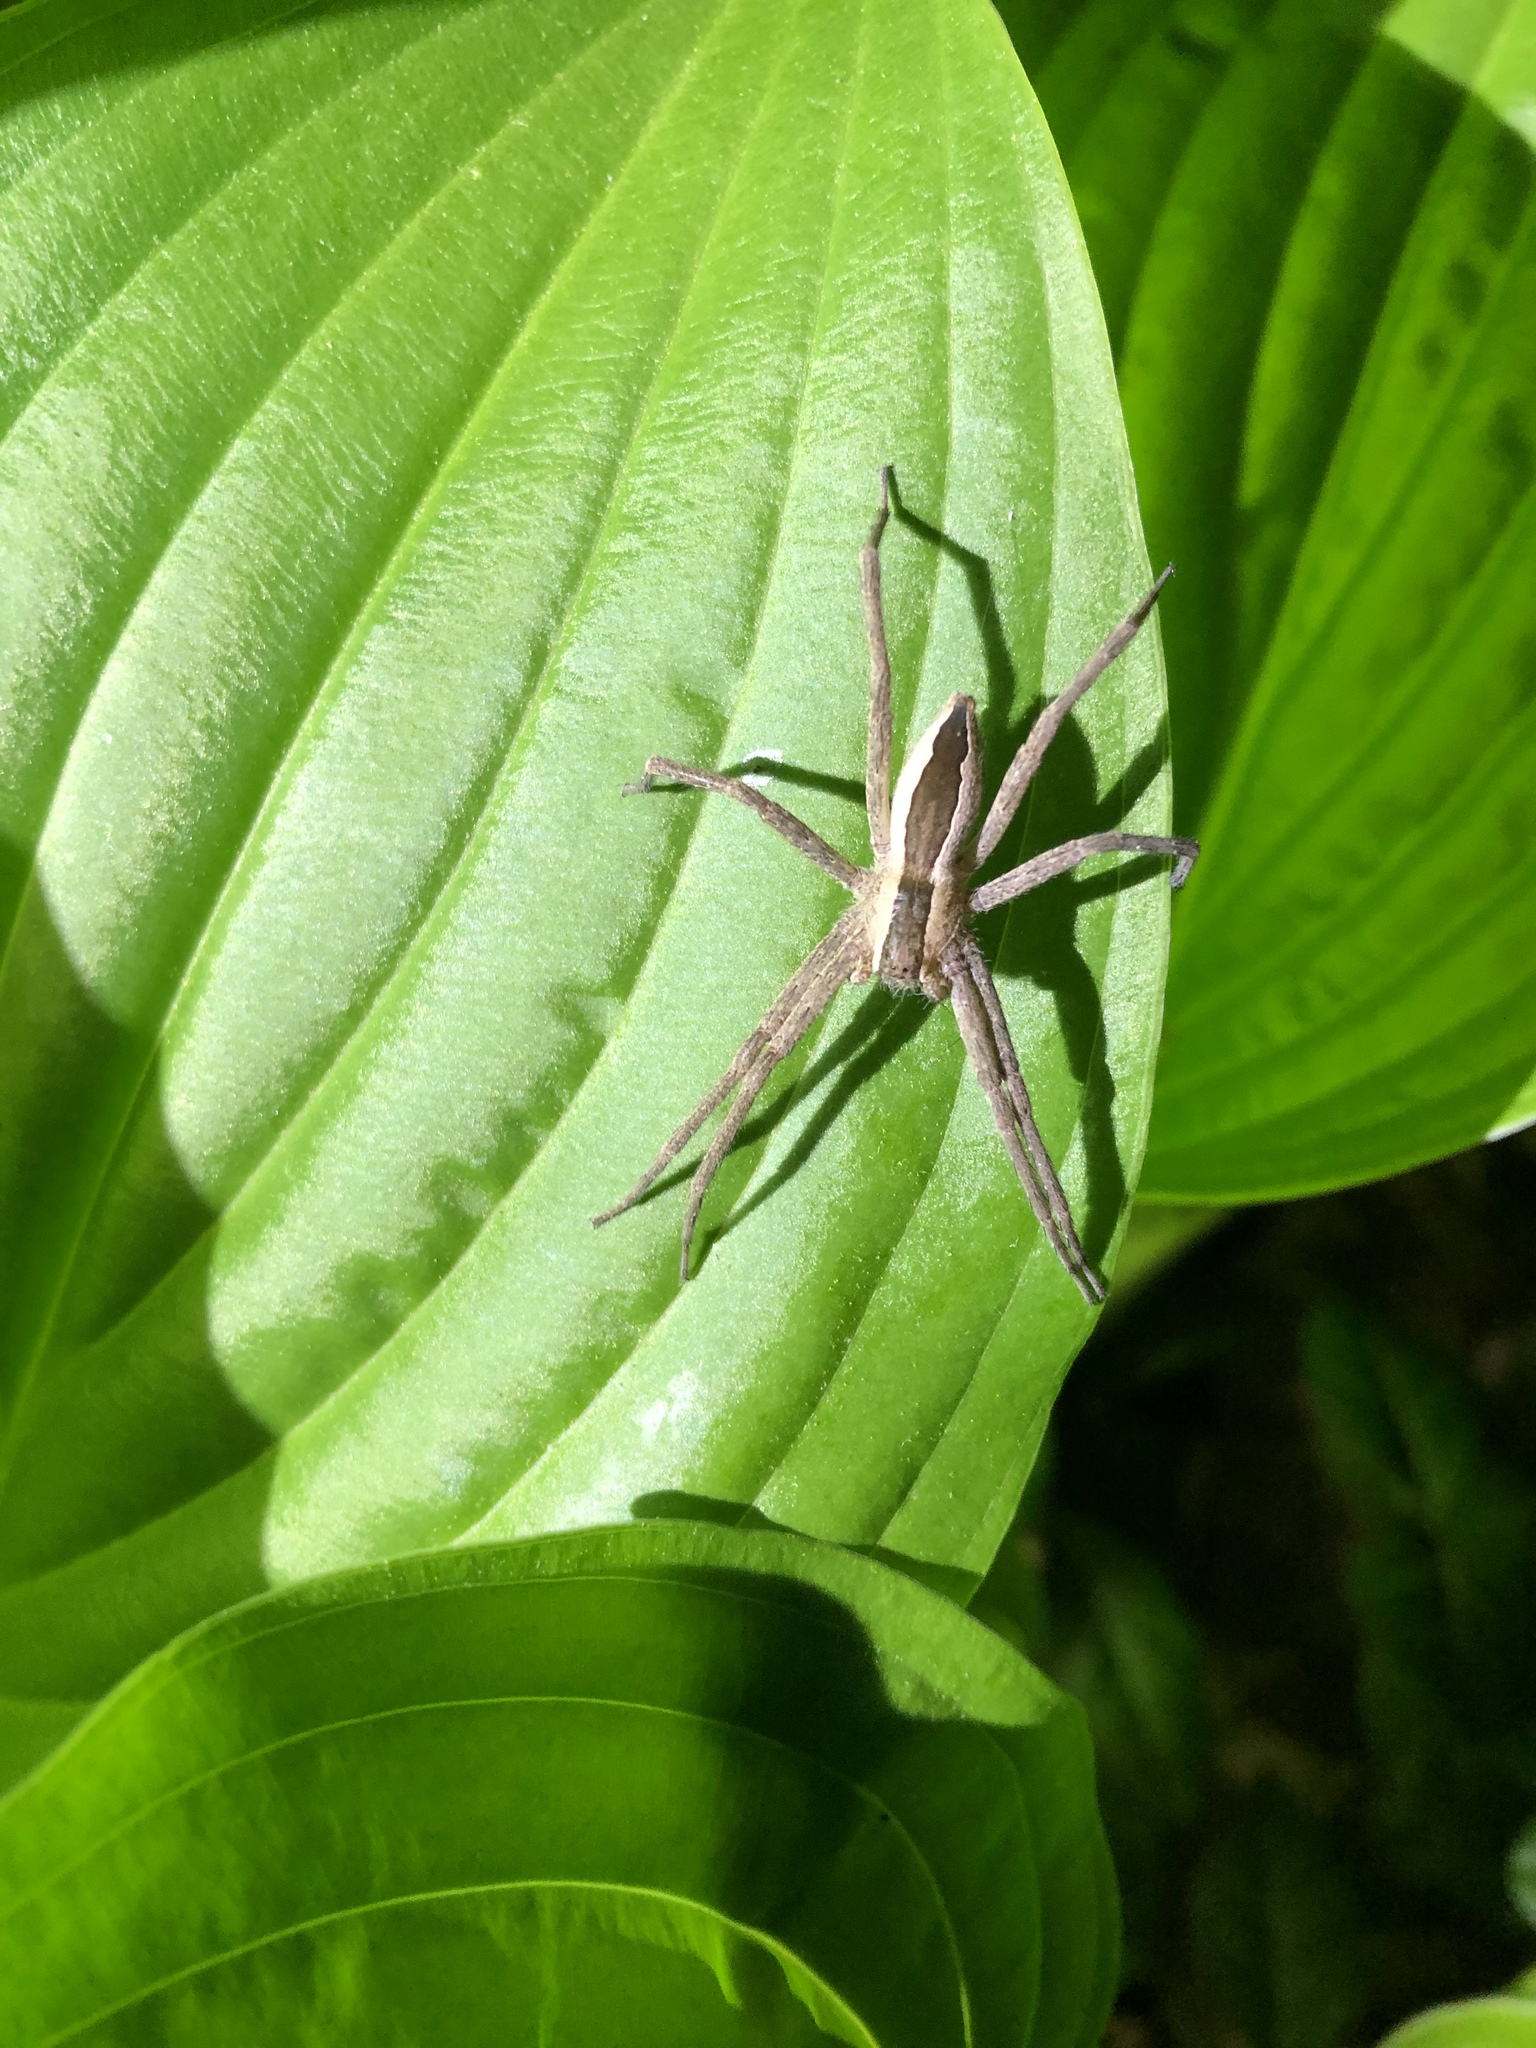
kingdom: Animalia
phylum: Arthropoda
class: Arachnida
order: Araneae
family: Pisauridae
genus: Pisaurina
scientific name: Pisaurina mira
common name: American nursery web spider
